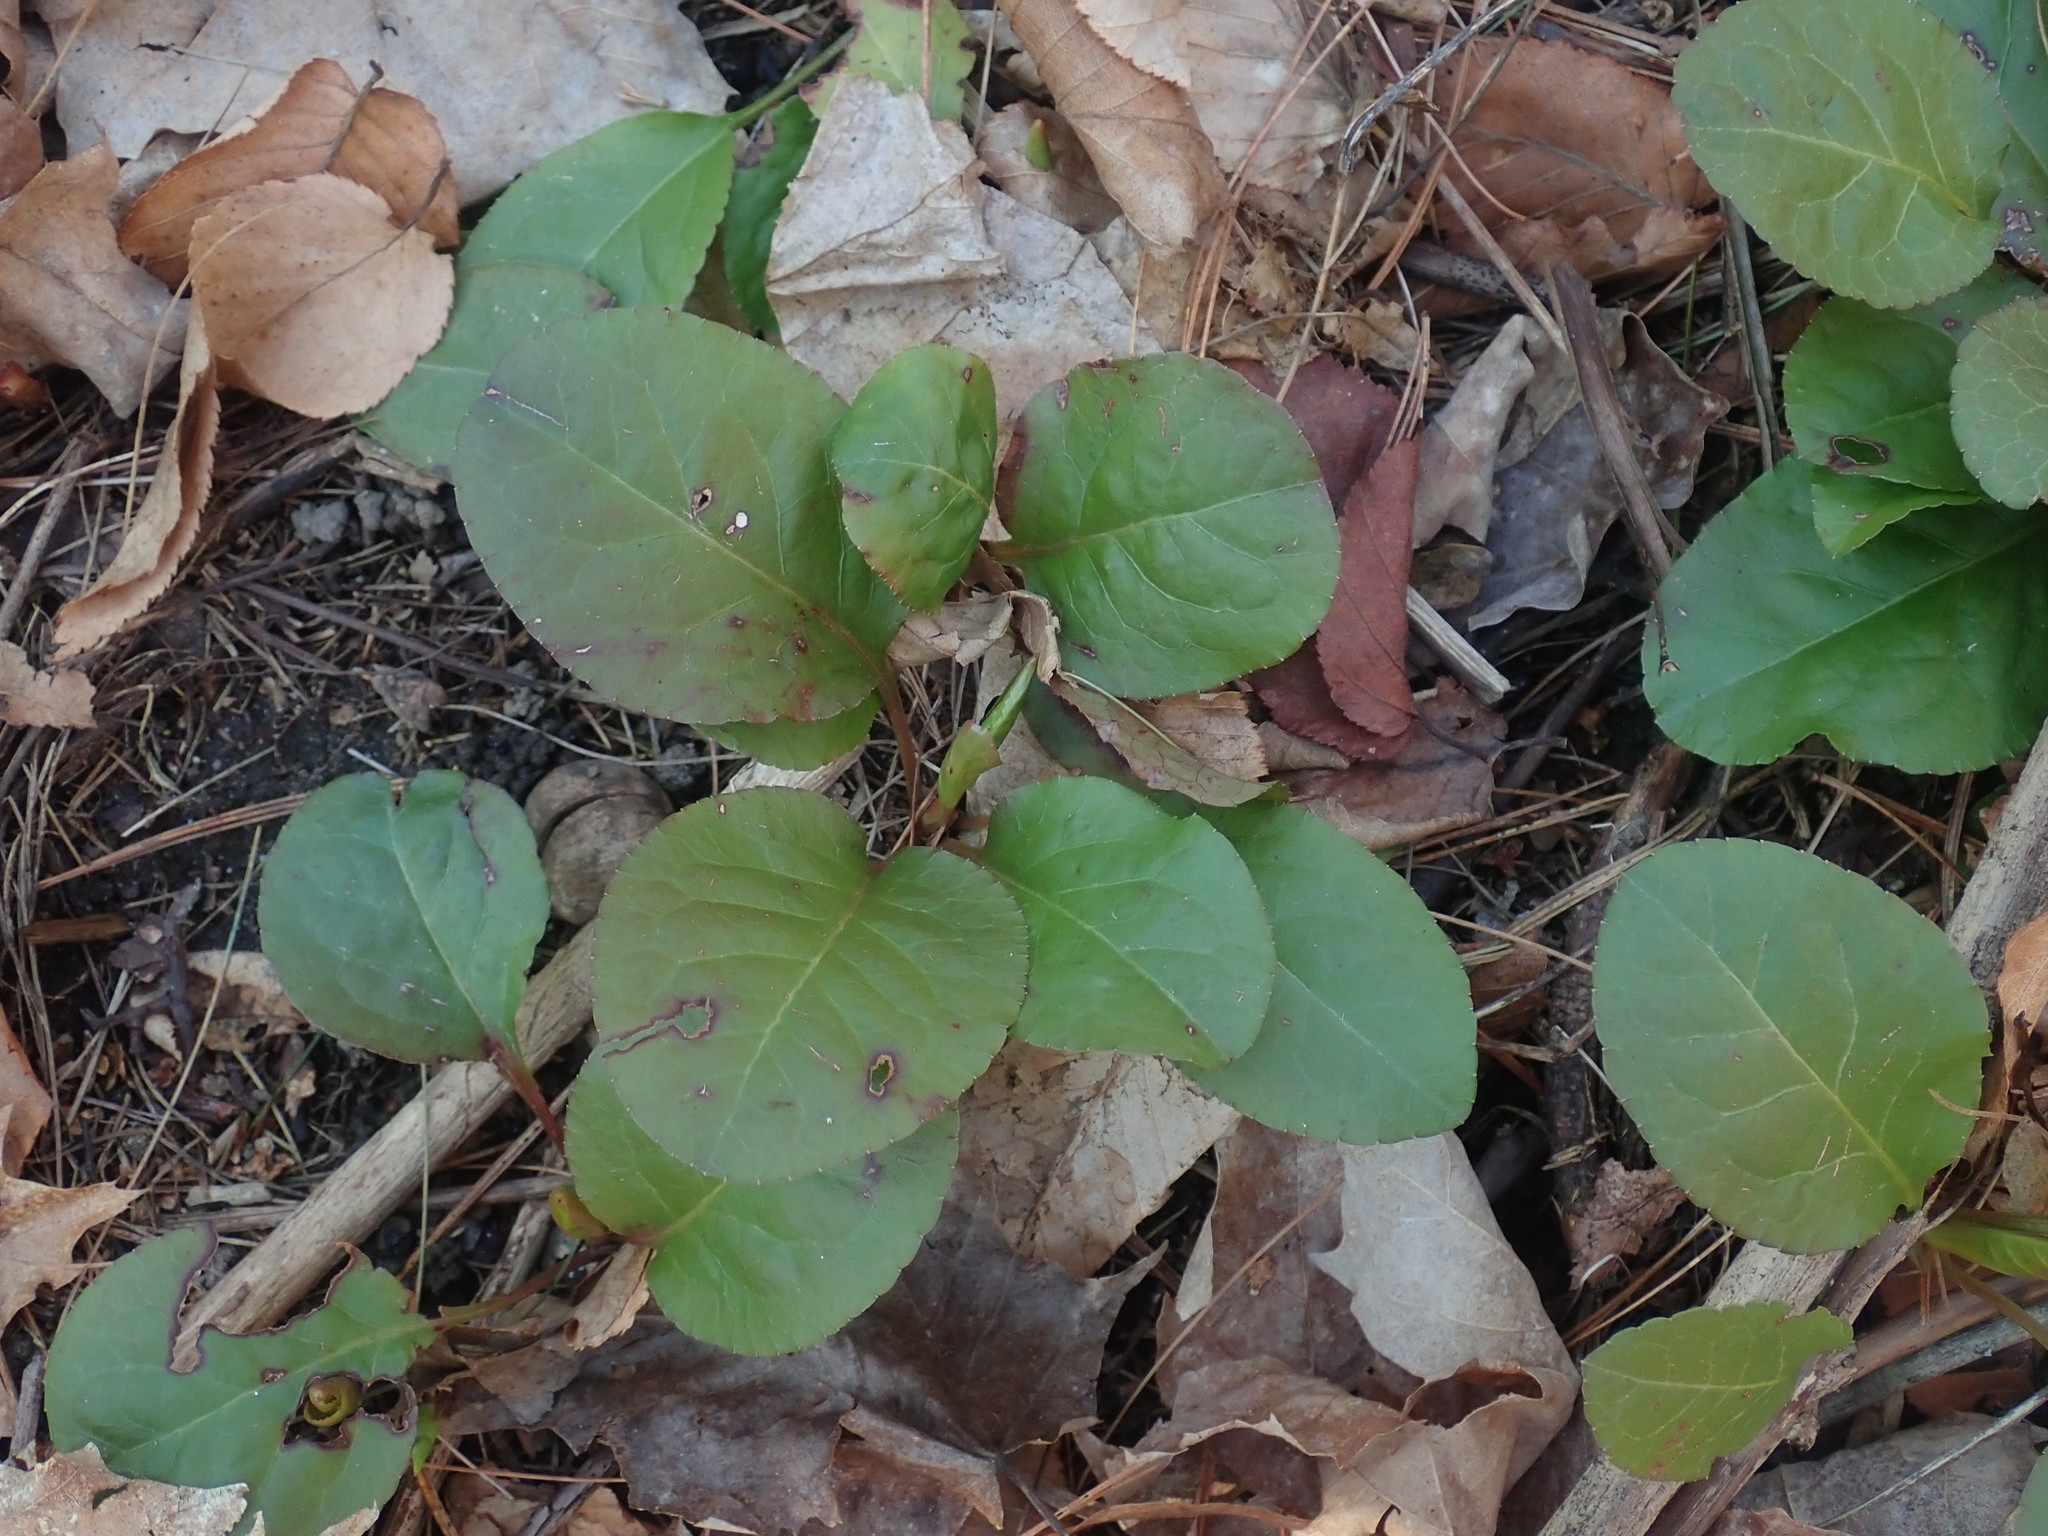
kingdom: Plantae
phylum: Tracheophyta
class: Magnoliopsida
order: Ericales
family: Ericaceae
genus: Pyrola
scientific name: Pyrola elliptica
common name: Shinleaf
